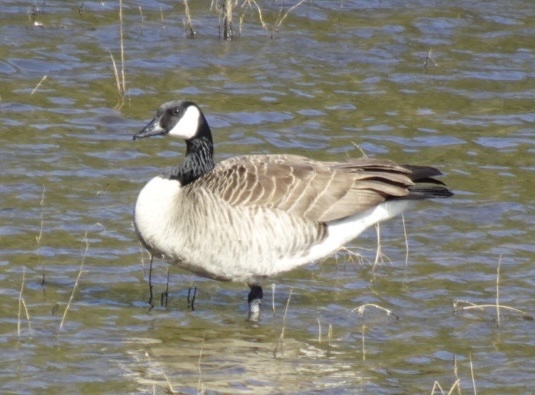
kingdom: Animalia
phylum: Chordata
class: Aves
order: Anseriformes
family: Anatidae
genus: Branta
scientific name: Branta canadensis
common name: Canada goose
